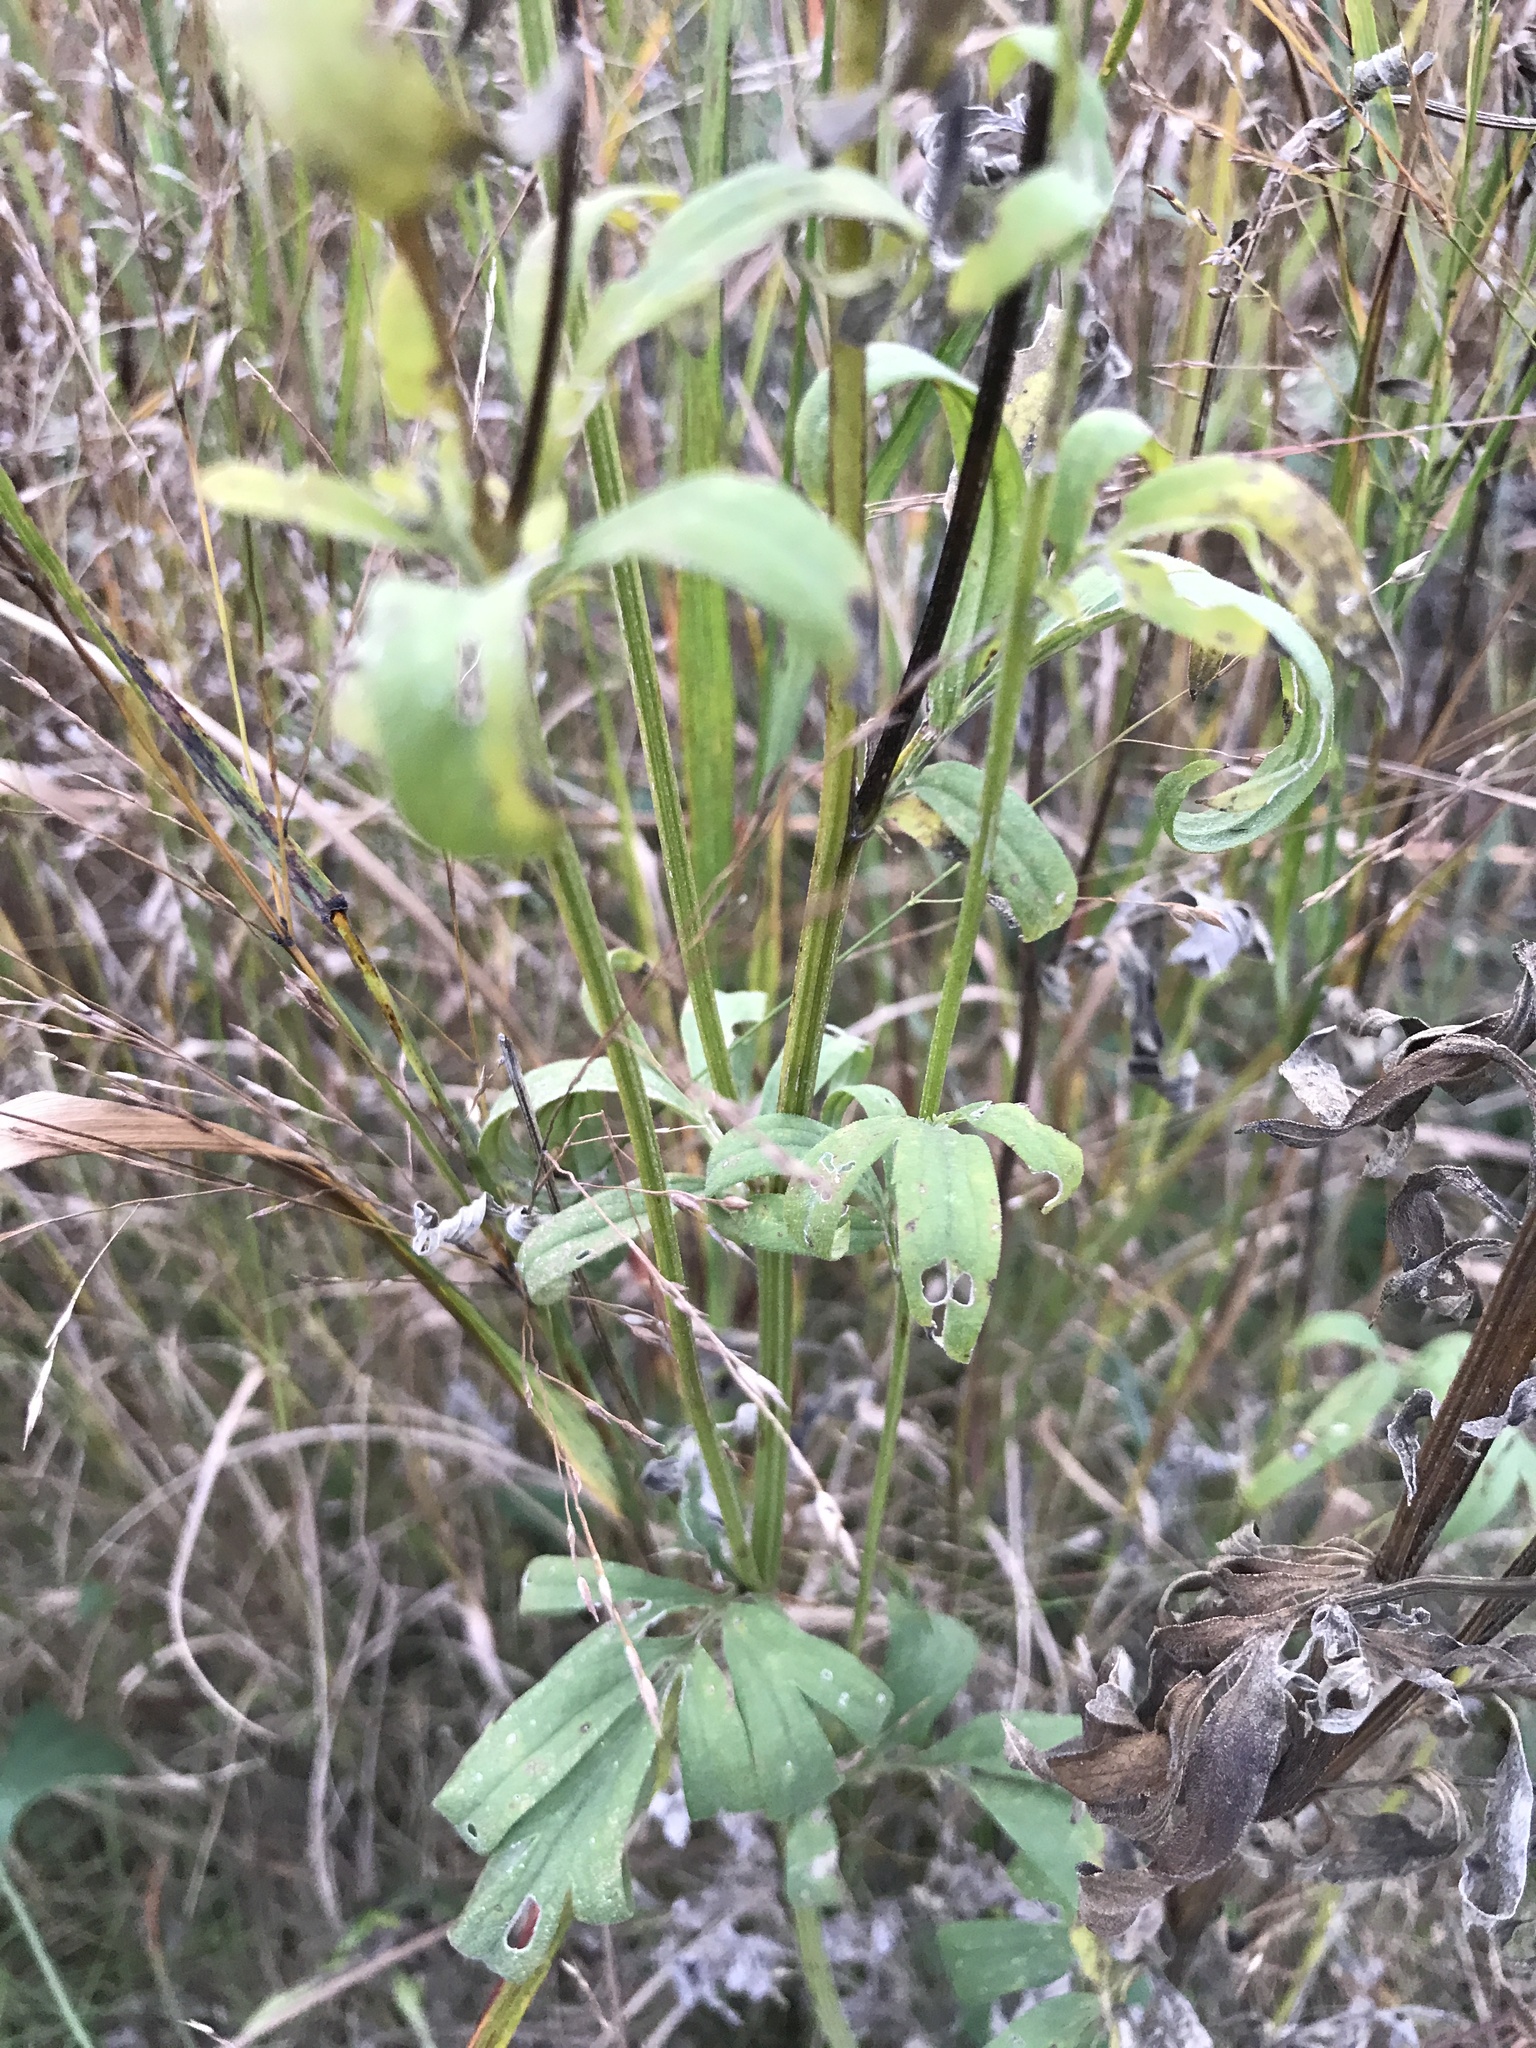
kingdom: Plantae
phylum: Tracheophyta
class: Magnoliopsida
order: Asterales
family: Asteraceae
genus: Ratibida
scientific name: Ratibida pinnata
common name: Drooping prairie-coneflower
